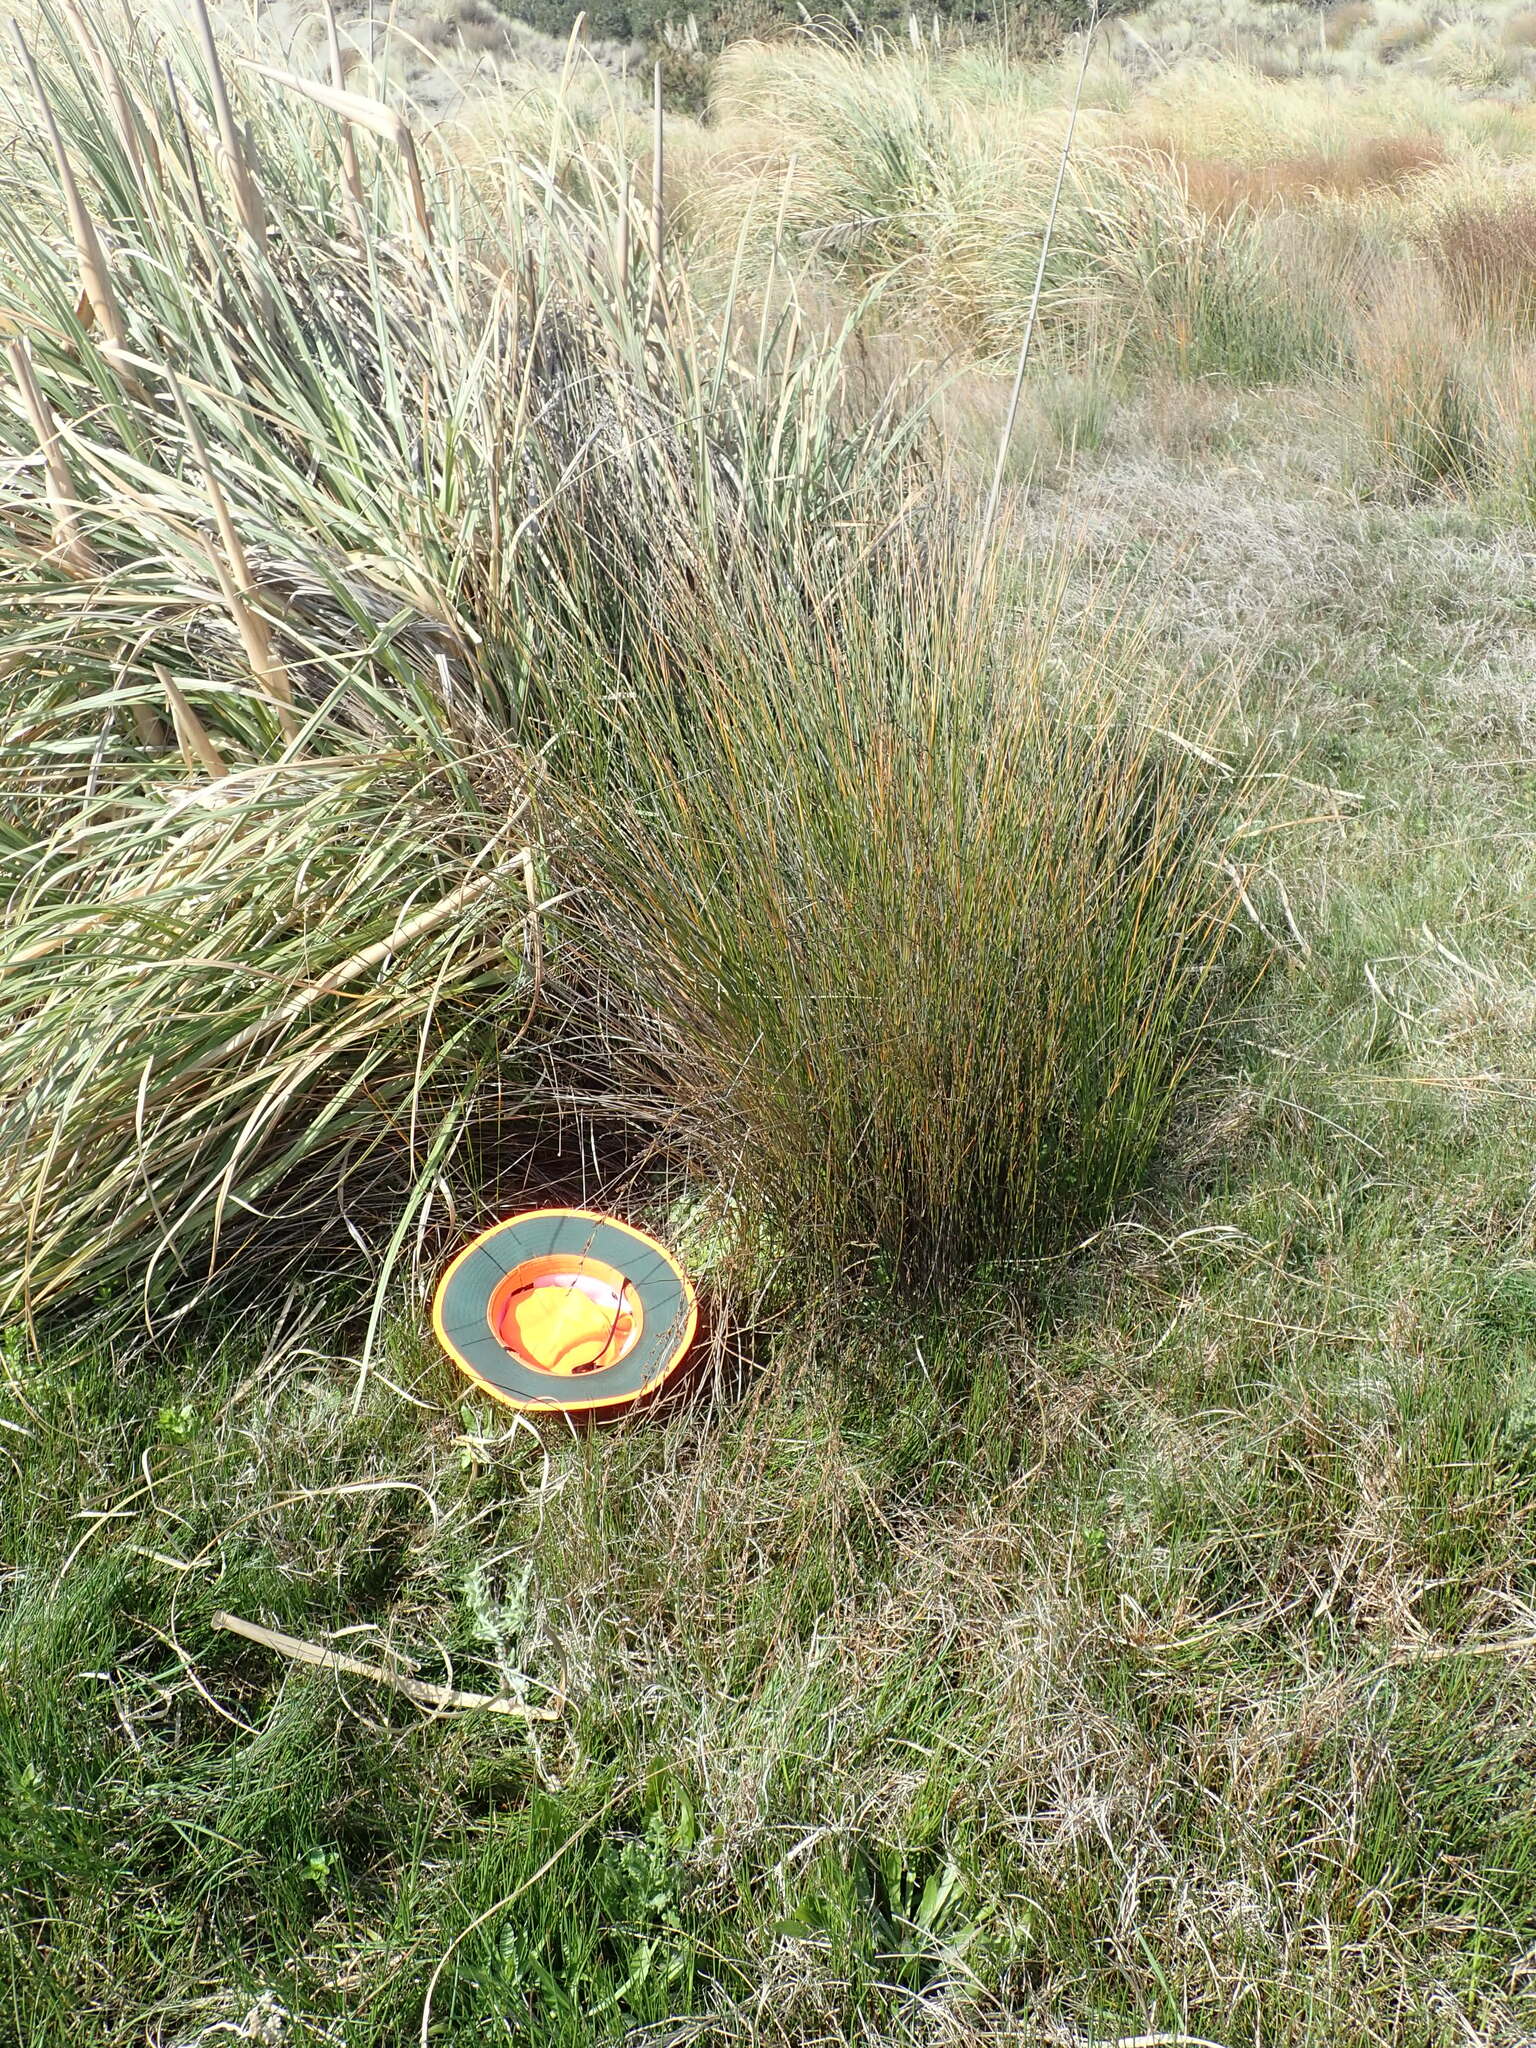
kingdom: Plantae
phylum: Tracheophyta
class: Magnoliopsida
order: Asterales
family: Campanulaceae
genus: Lobelia
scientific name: Lobelia anceps
